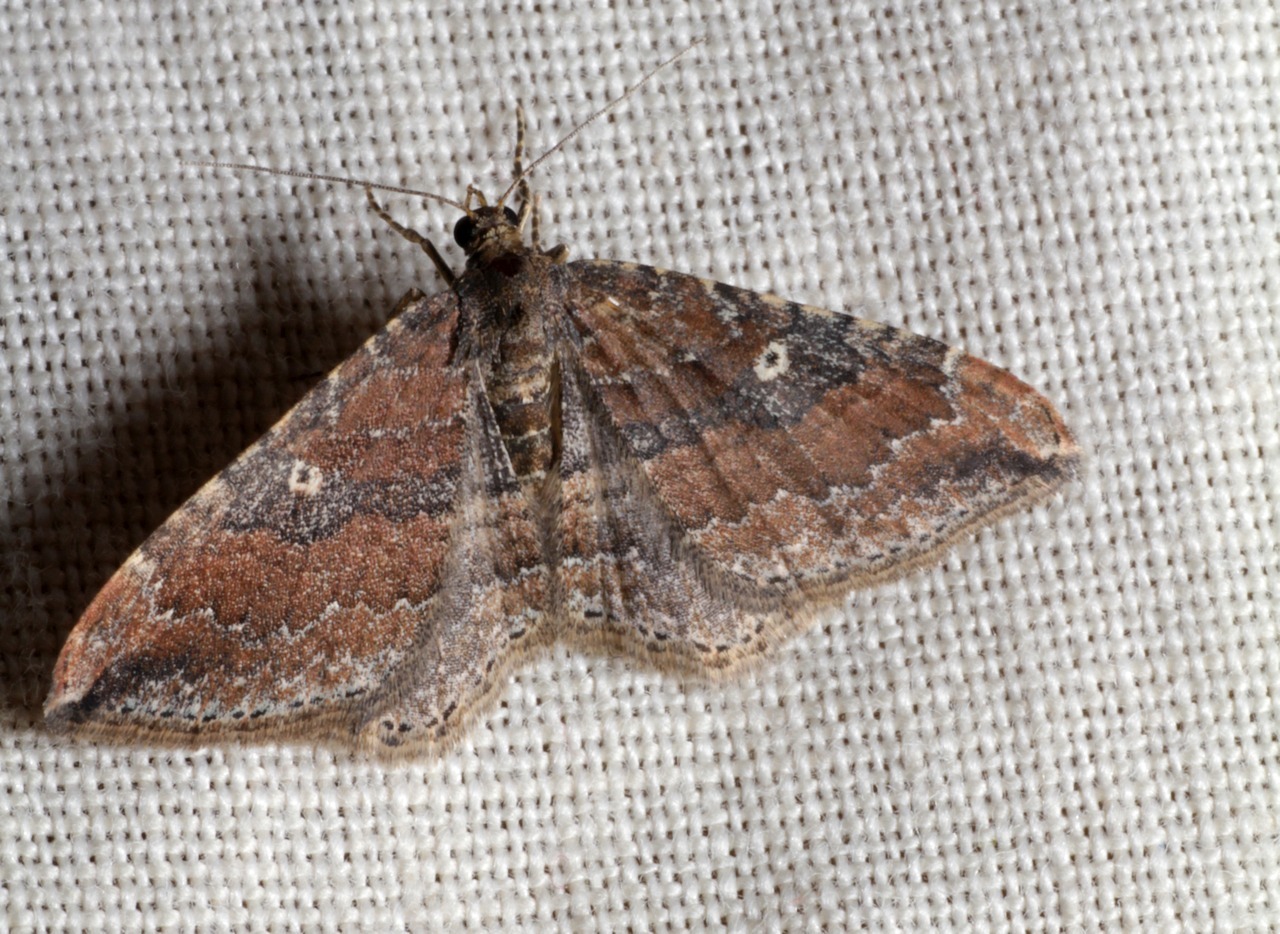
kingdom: Animalia
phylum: Arthropoda
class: Insecta
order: Lepidoptera
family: Geometridae
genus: Orthonama
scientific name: Orthonama obstipata
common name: The gem
